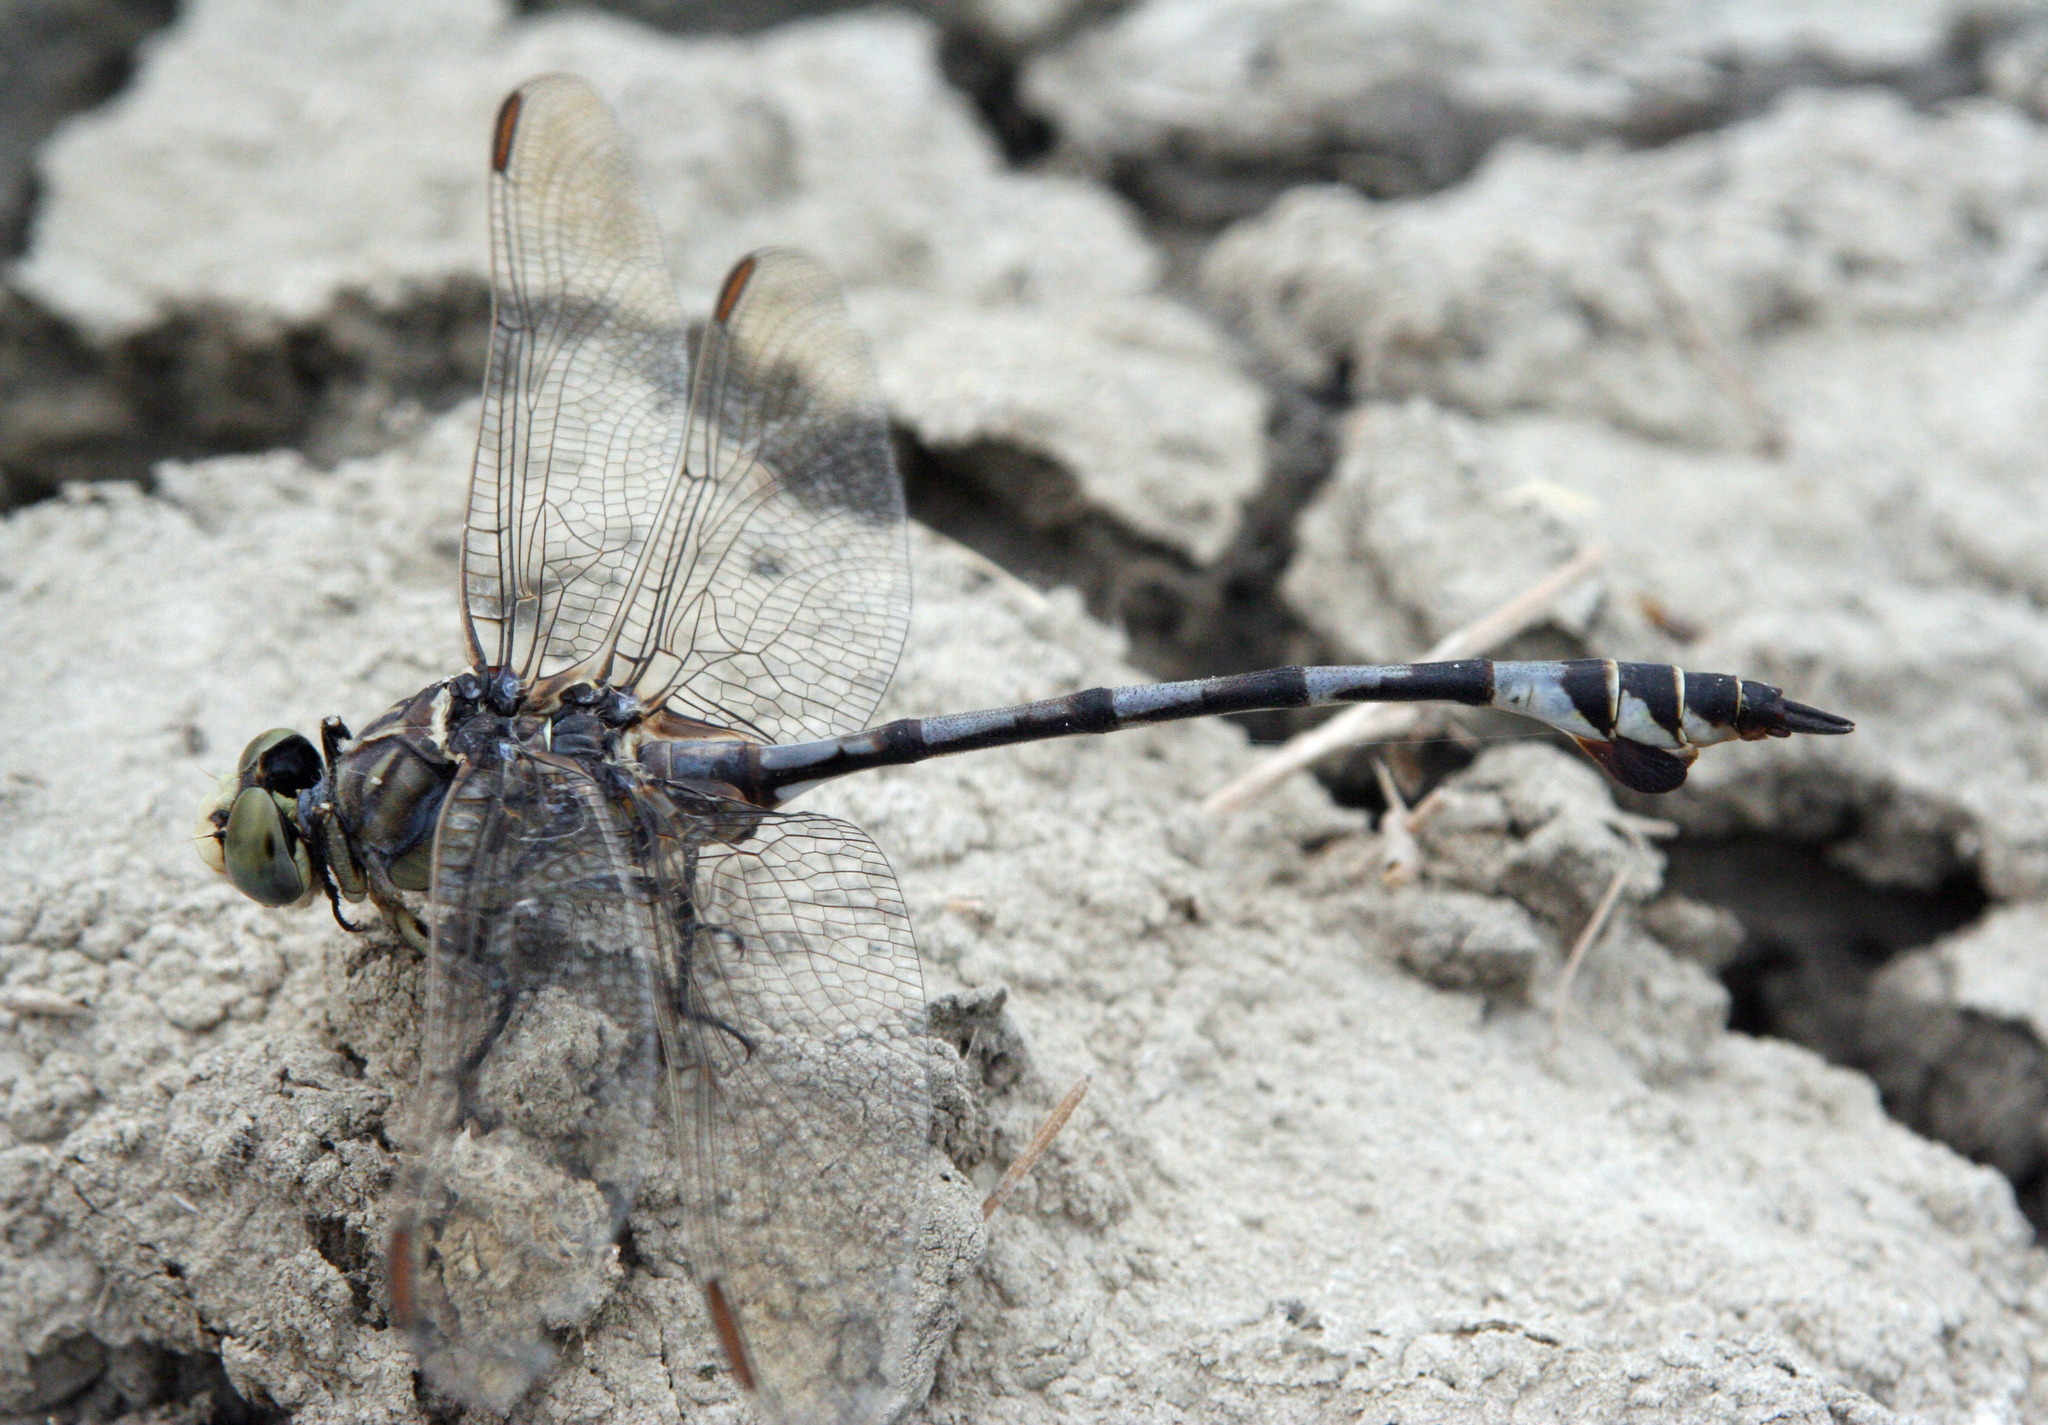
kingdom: Animalia
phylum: Arthropoda
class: Insecta
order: Odonata
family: Gomphidae
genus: Lindenia
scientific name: Lindenia tetraphylla
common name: Bladetail
